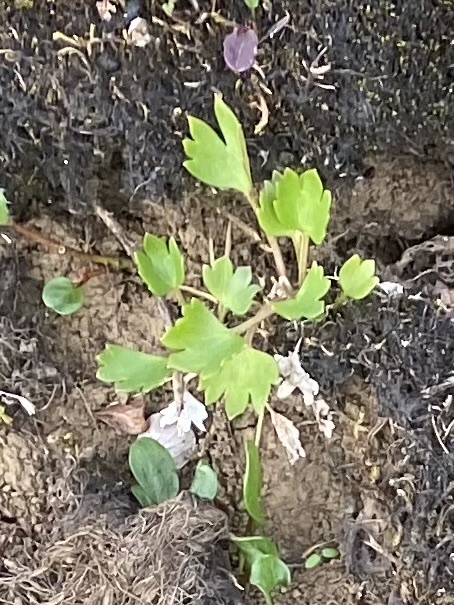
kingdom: Plantae
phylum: Tracheophyta
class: Magnoliopsida
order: Ranunculales
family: Ranunculaceae
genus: Ranunculus
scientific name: Ranunculus sulphureus
